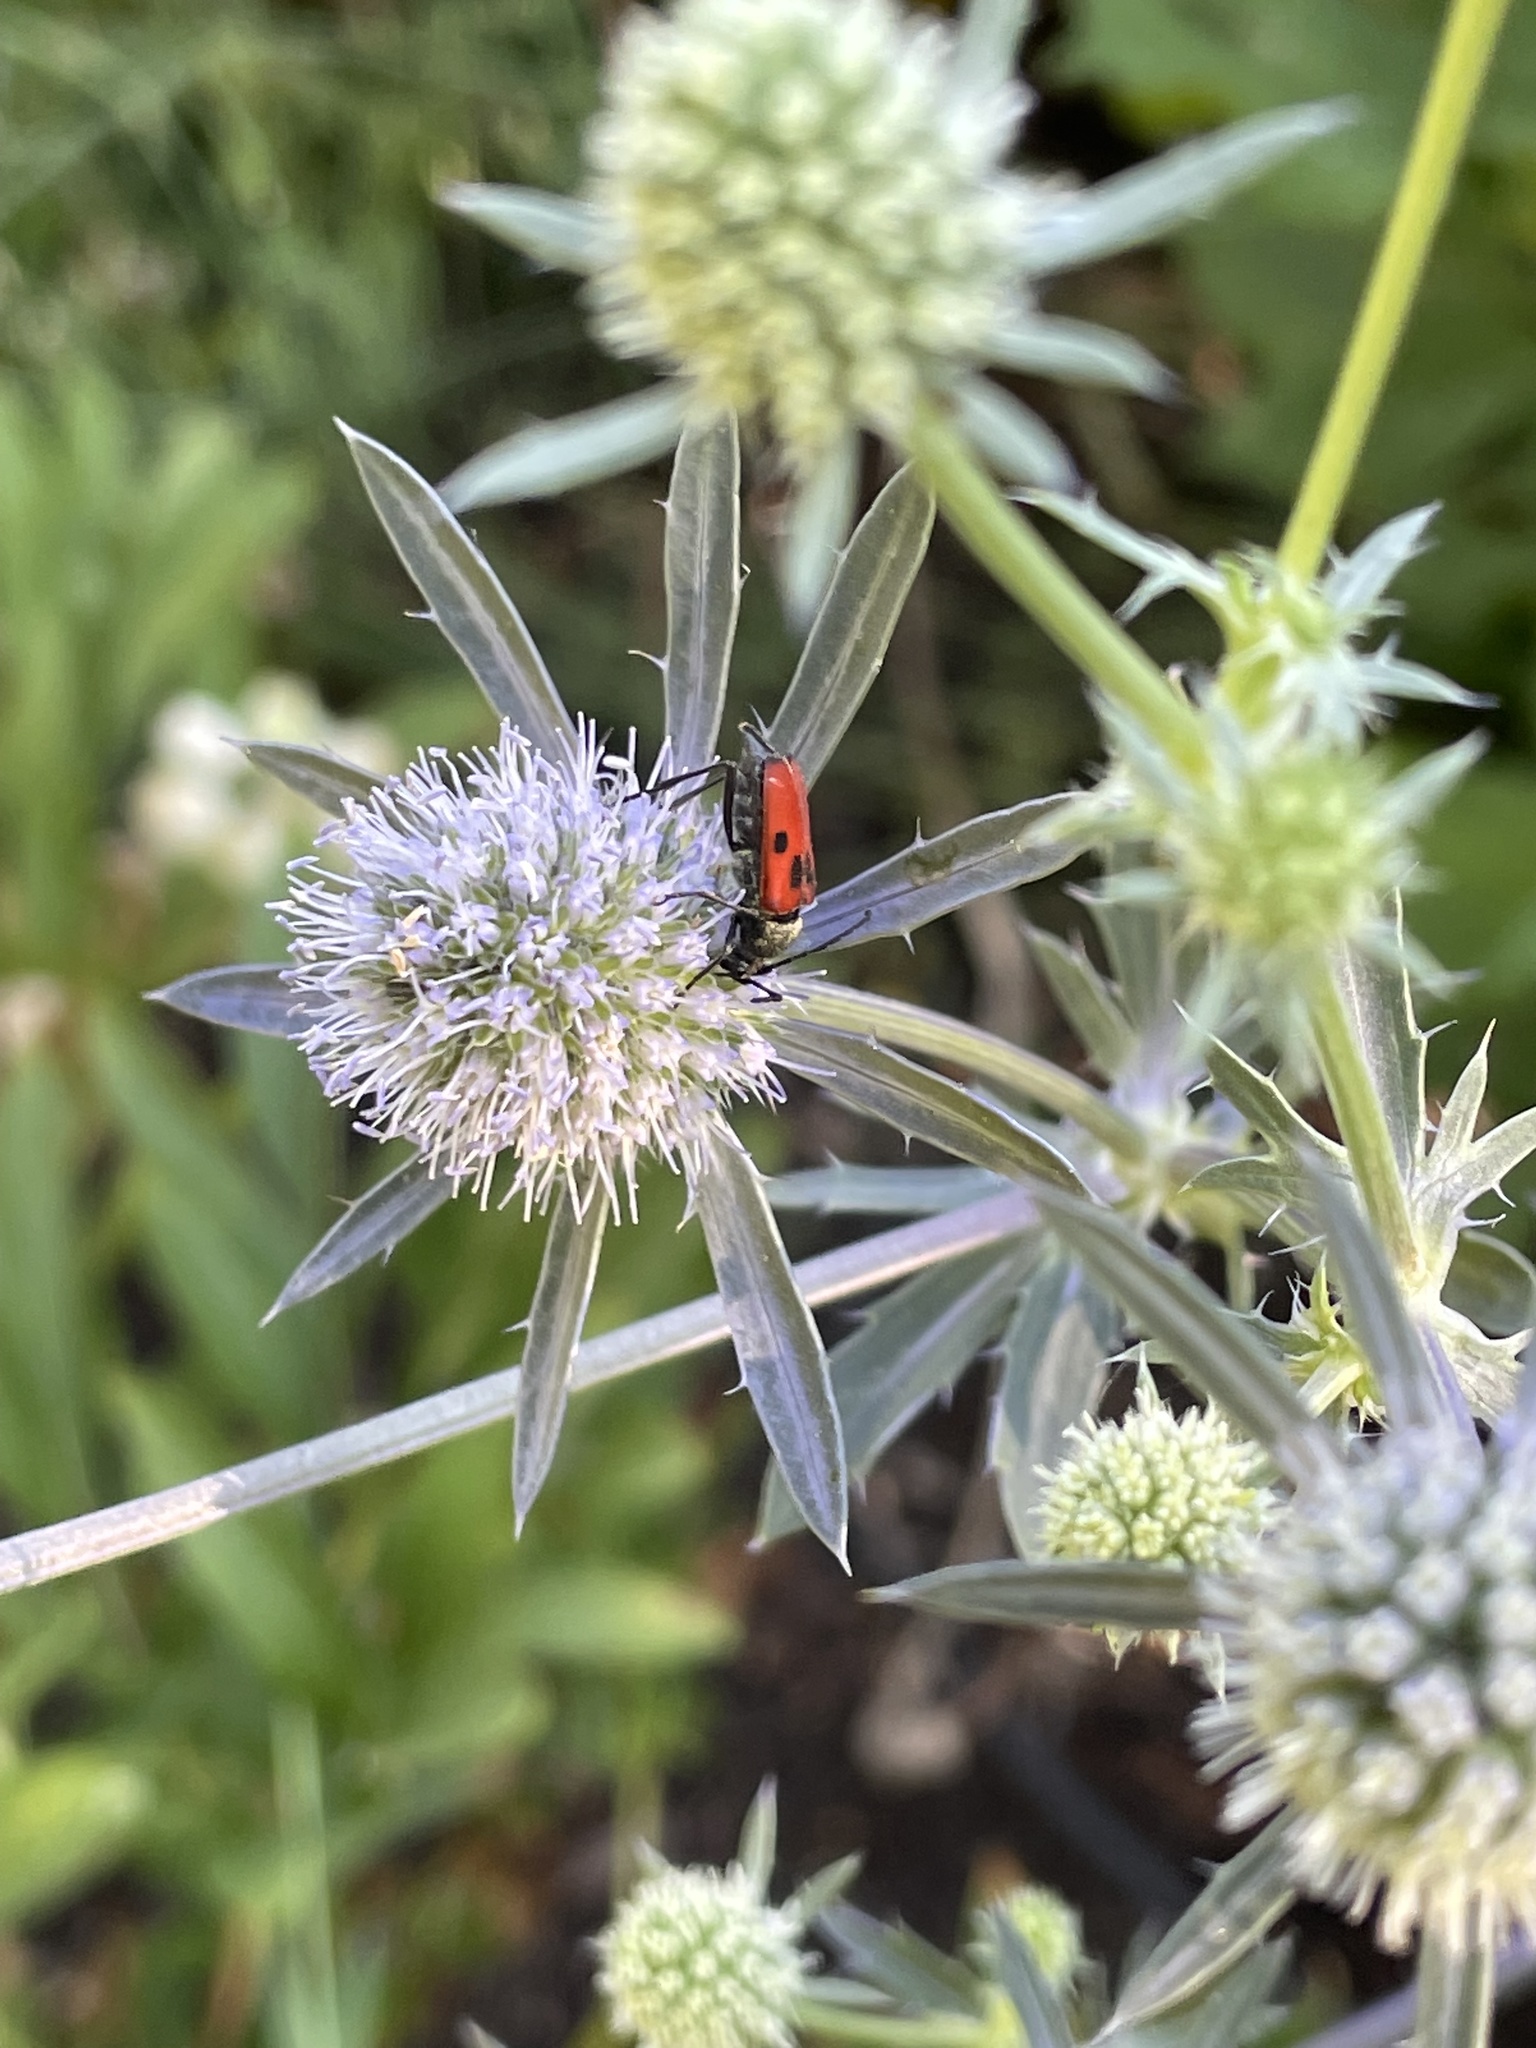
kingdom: Animalia
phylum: Arthropoda
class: Insecta
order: Coleoptera
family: Cerambycidae
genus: Anastrangalia
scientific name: Anastrangalia laetifica
